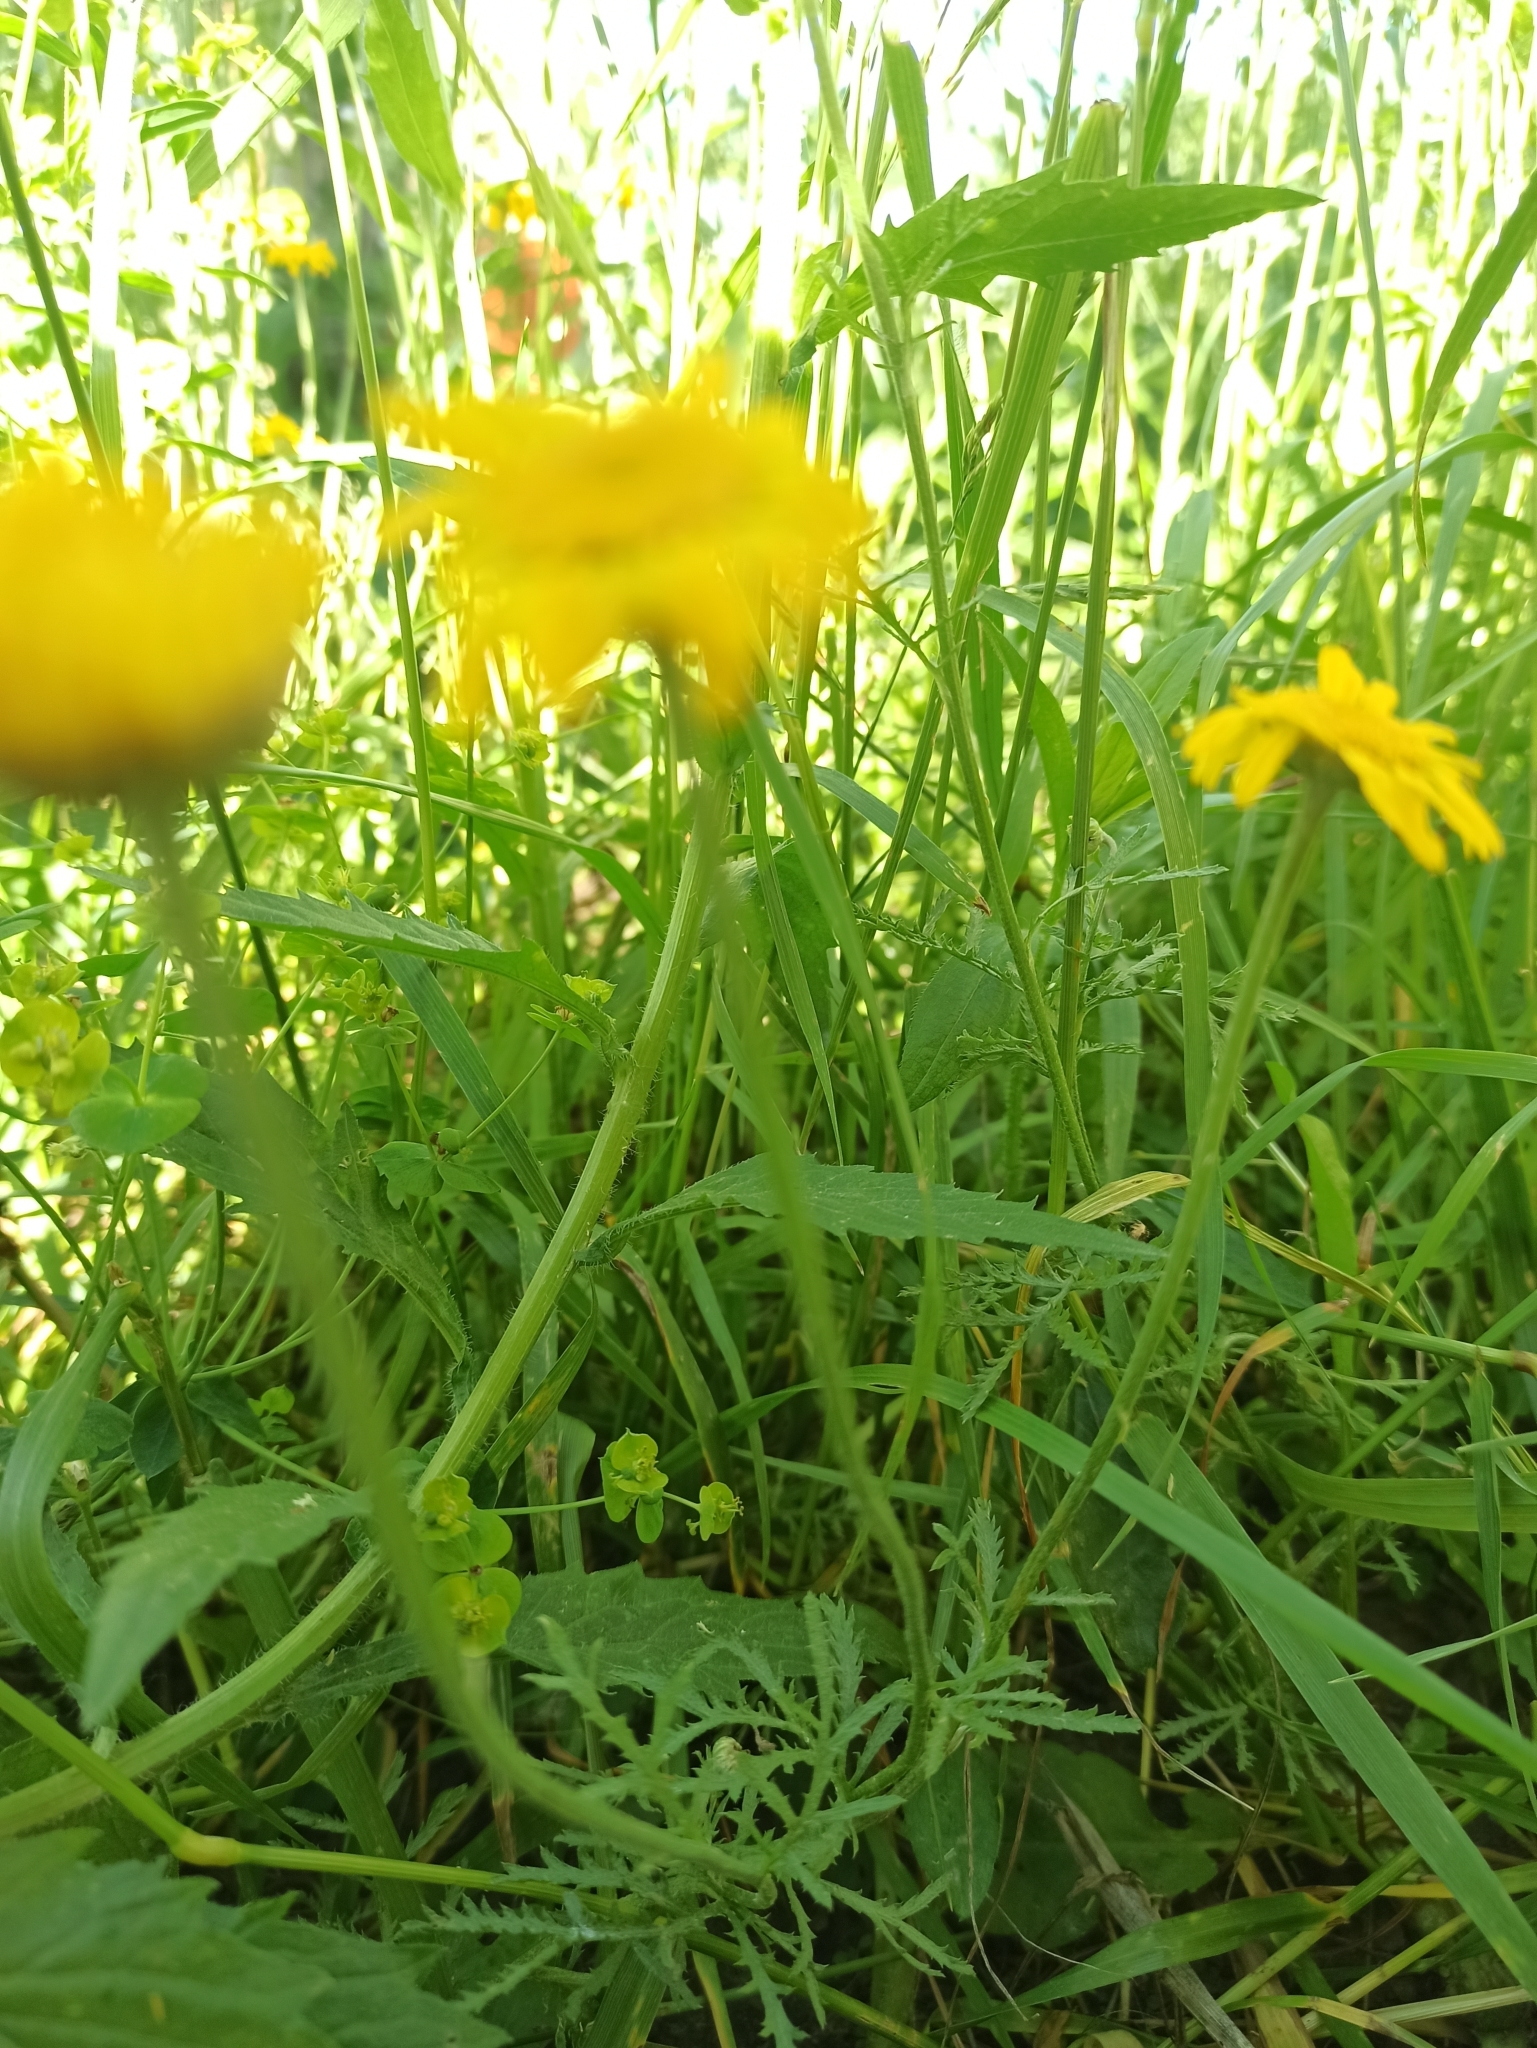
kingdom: Plantae
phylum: Tracheophyta
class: Magnoliopsida
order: Asterales
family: Asteraceae
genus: Cota
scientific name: Cota tinctoria
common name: Golden chamomile
